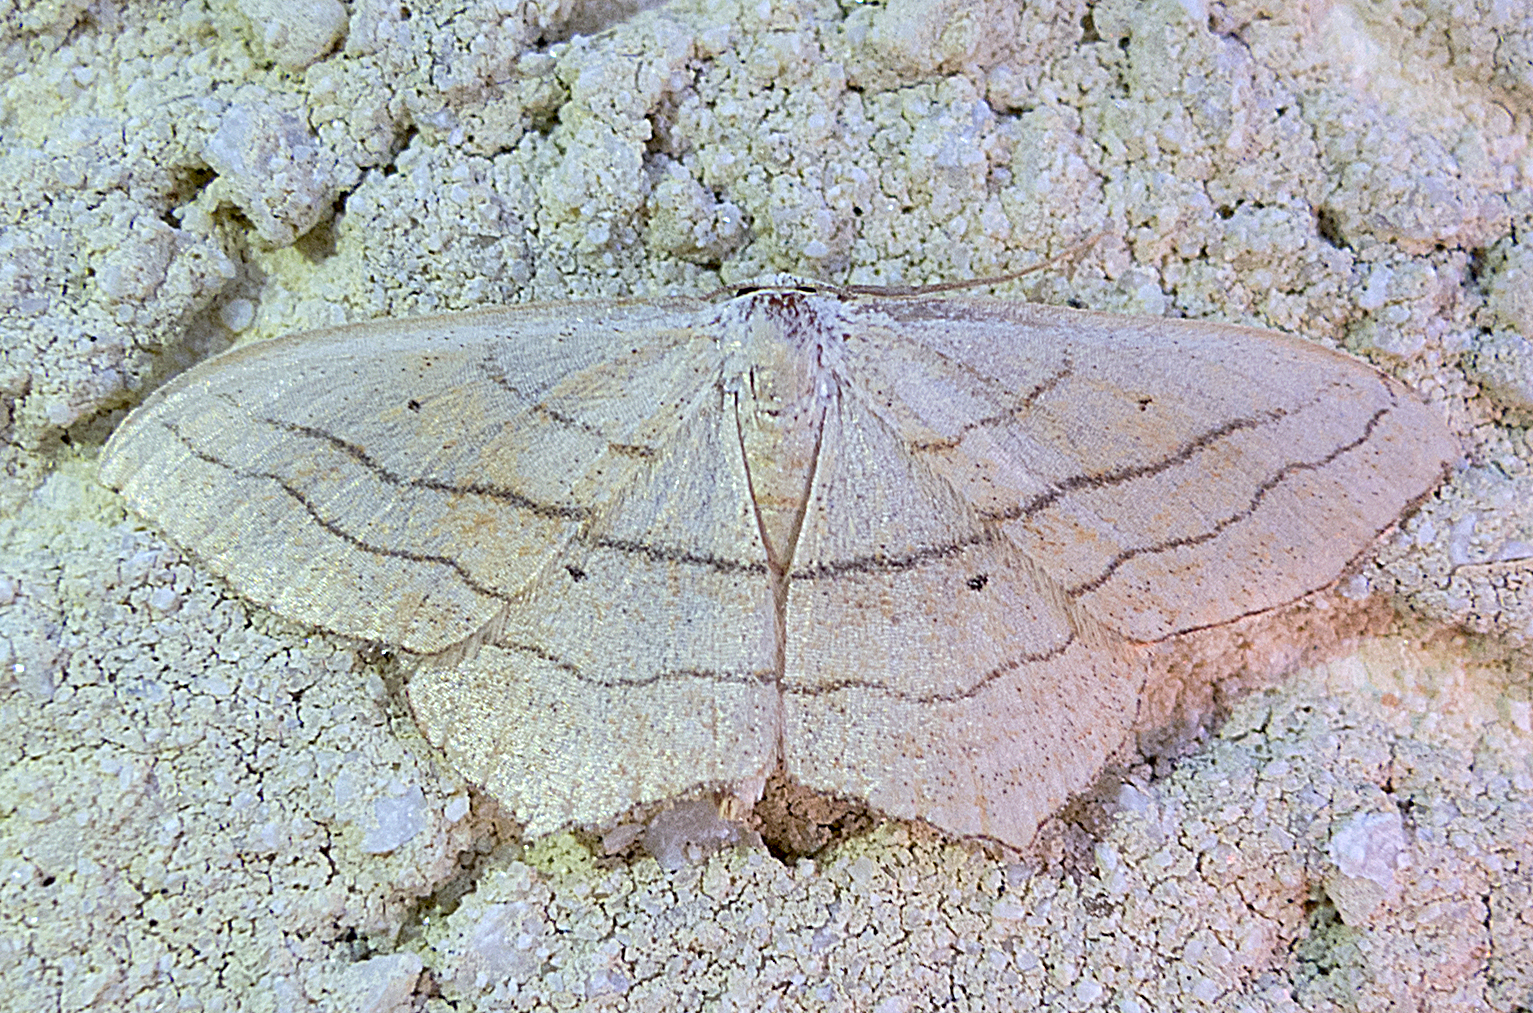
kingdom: Animalia
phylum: Arthropoda
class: Insecta
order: Lepidoptera
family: Geometridae
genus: Scopula
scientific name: Scopula imitaria
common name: Small blood-vein
